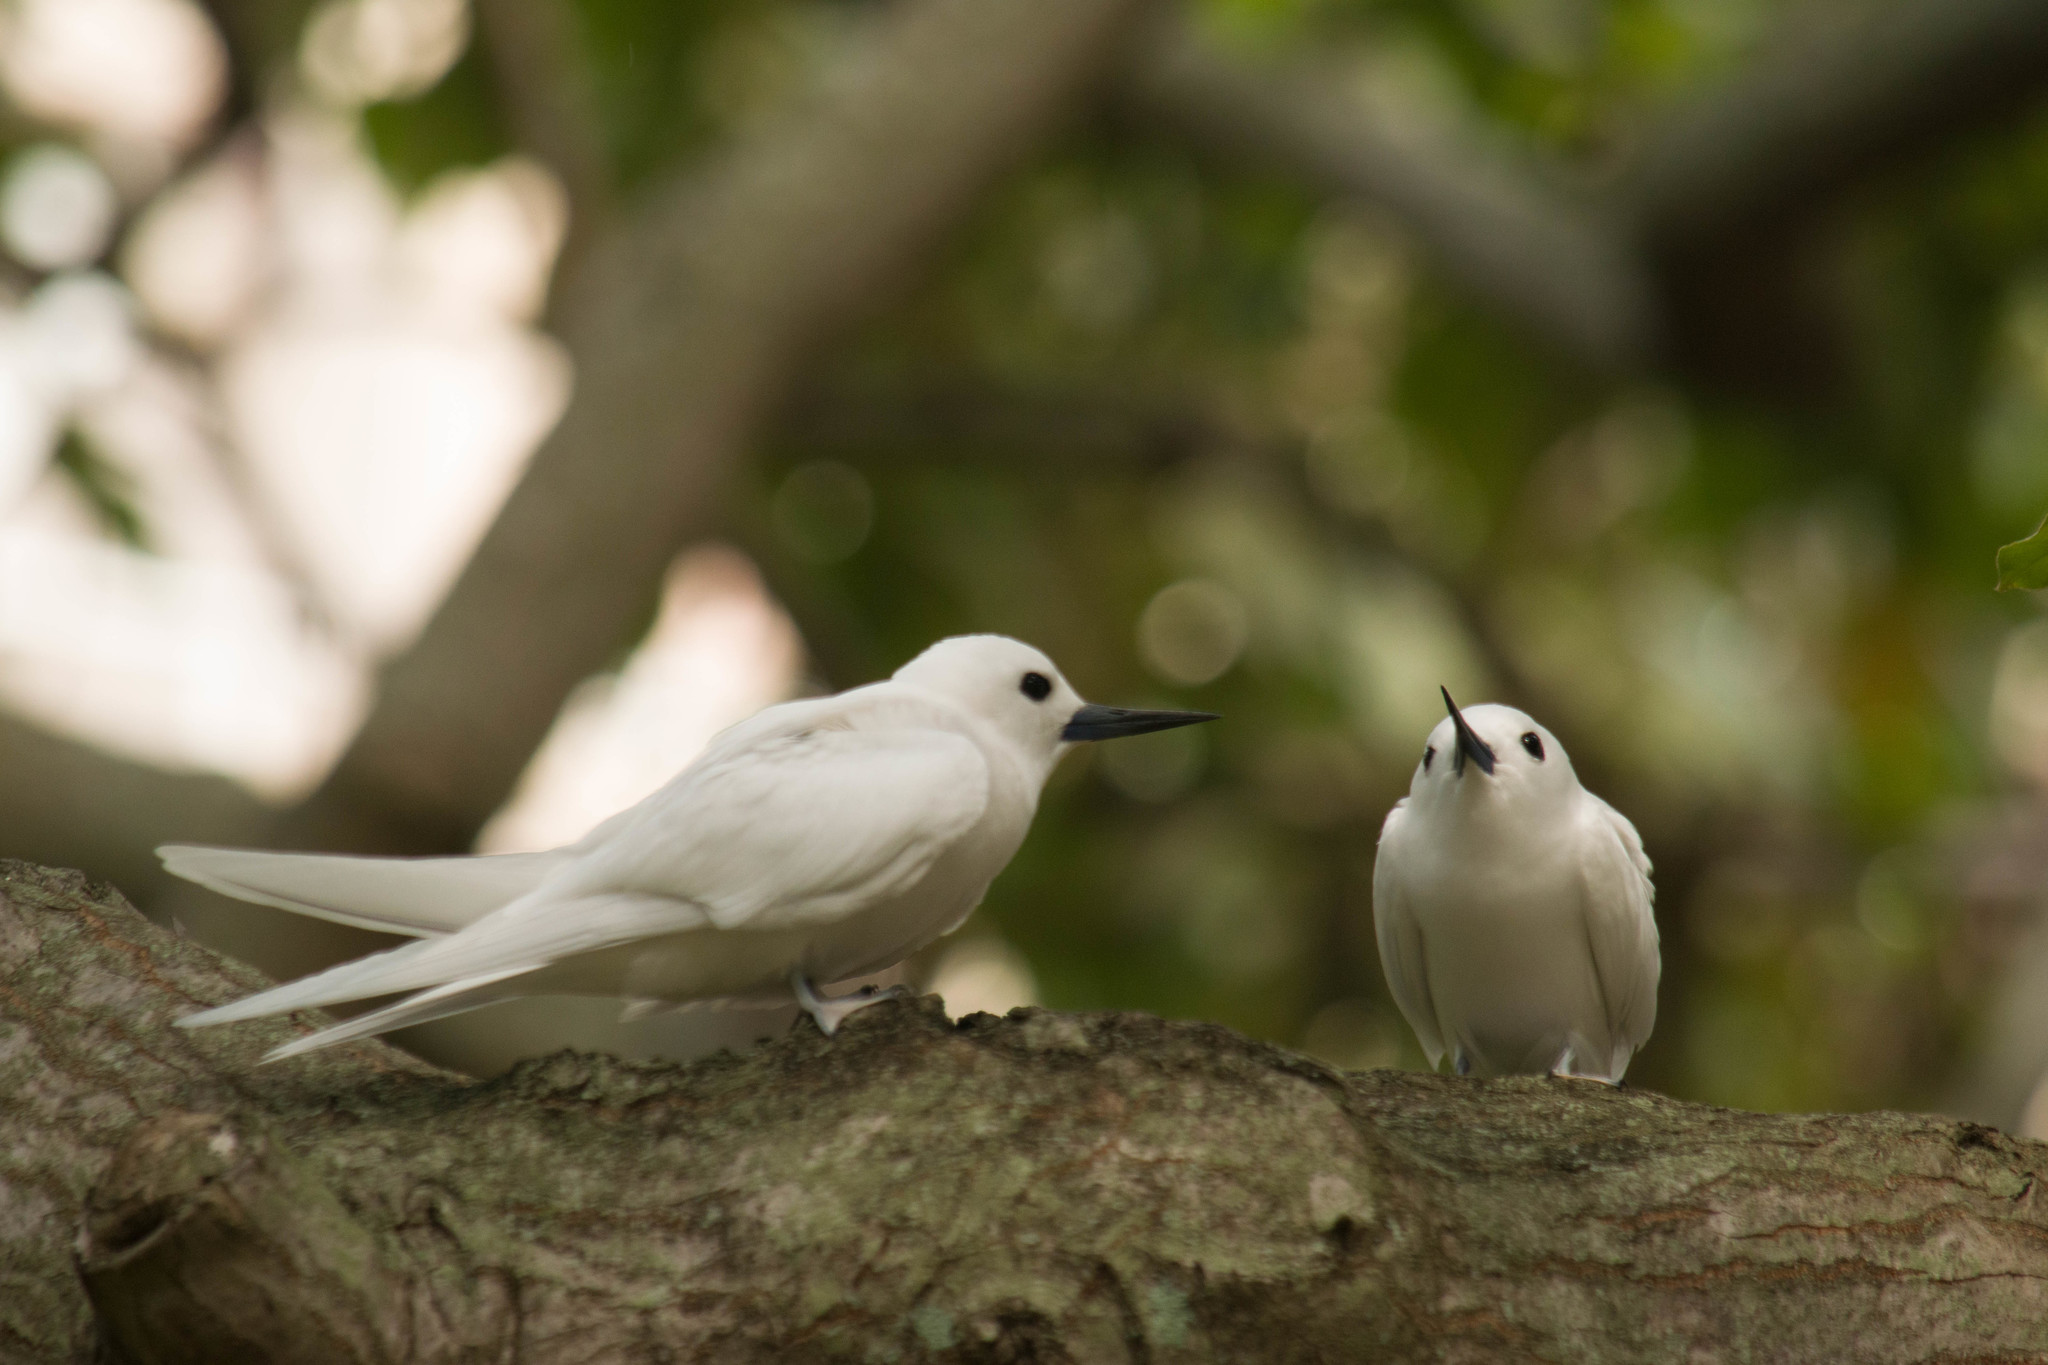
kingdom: Animalia
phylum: Chordata
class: Aves
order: Charadriiformes
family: Laridae
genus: Gygis
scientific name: Gygis alba
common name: White tern
